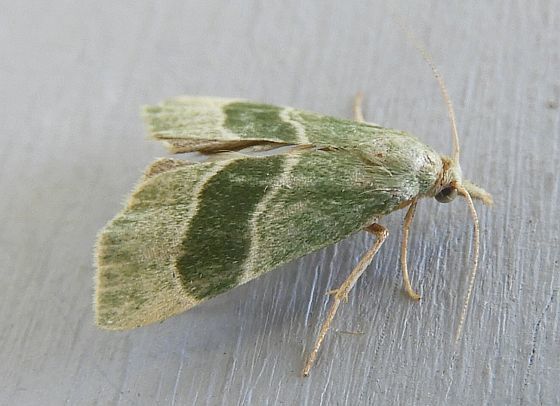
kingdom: Animalia
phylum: Arthropoda
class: Insecta
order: Lepidoptera
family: Pyralidae
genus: Anemosella
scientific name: Anemosella viridalis
